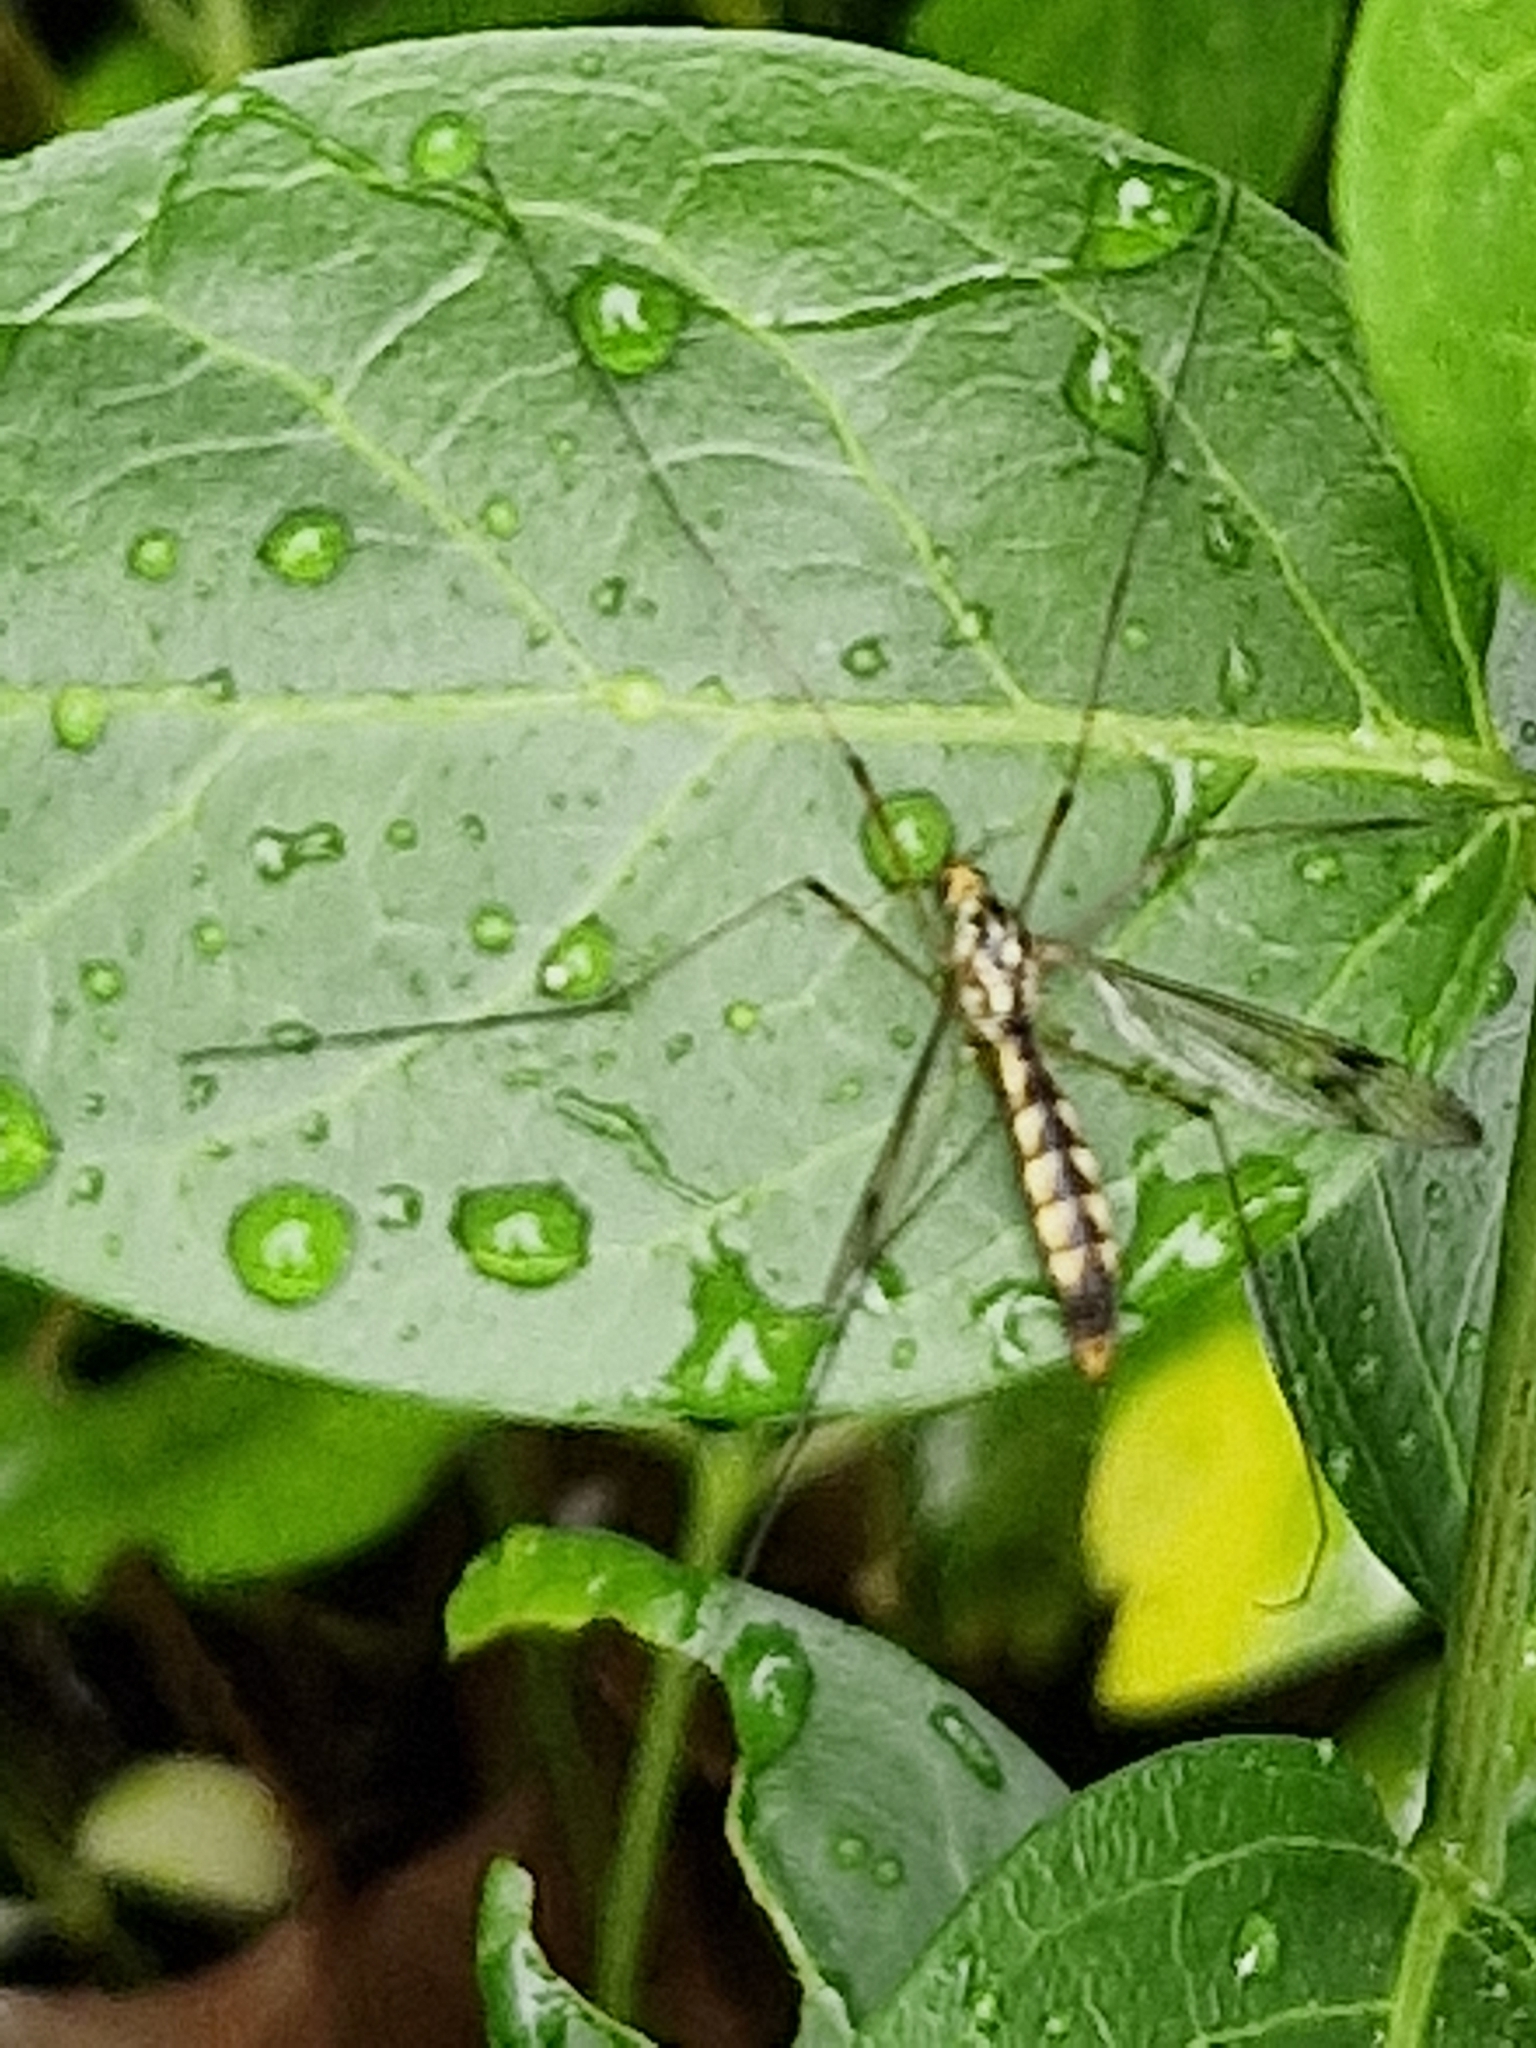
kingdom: Animalia
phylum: Arthropoda
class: Insecta
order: Diptera
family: Tipulidae
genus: Nephrotoma
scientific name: Nephrotoma quadrifaria
